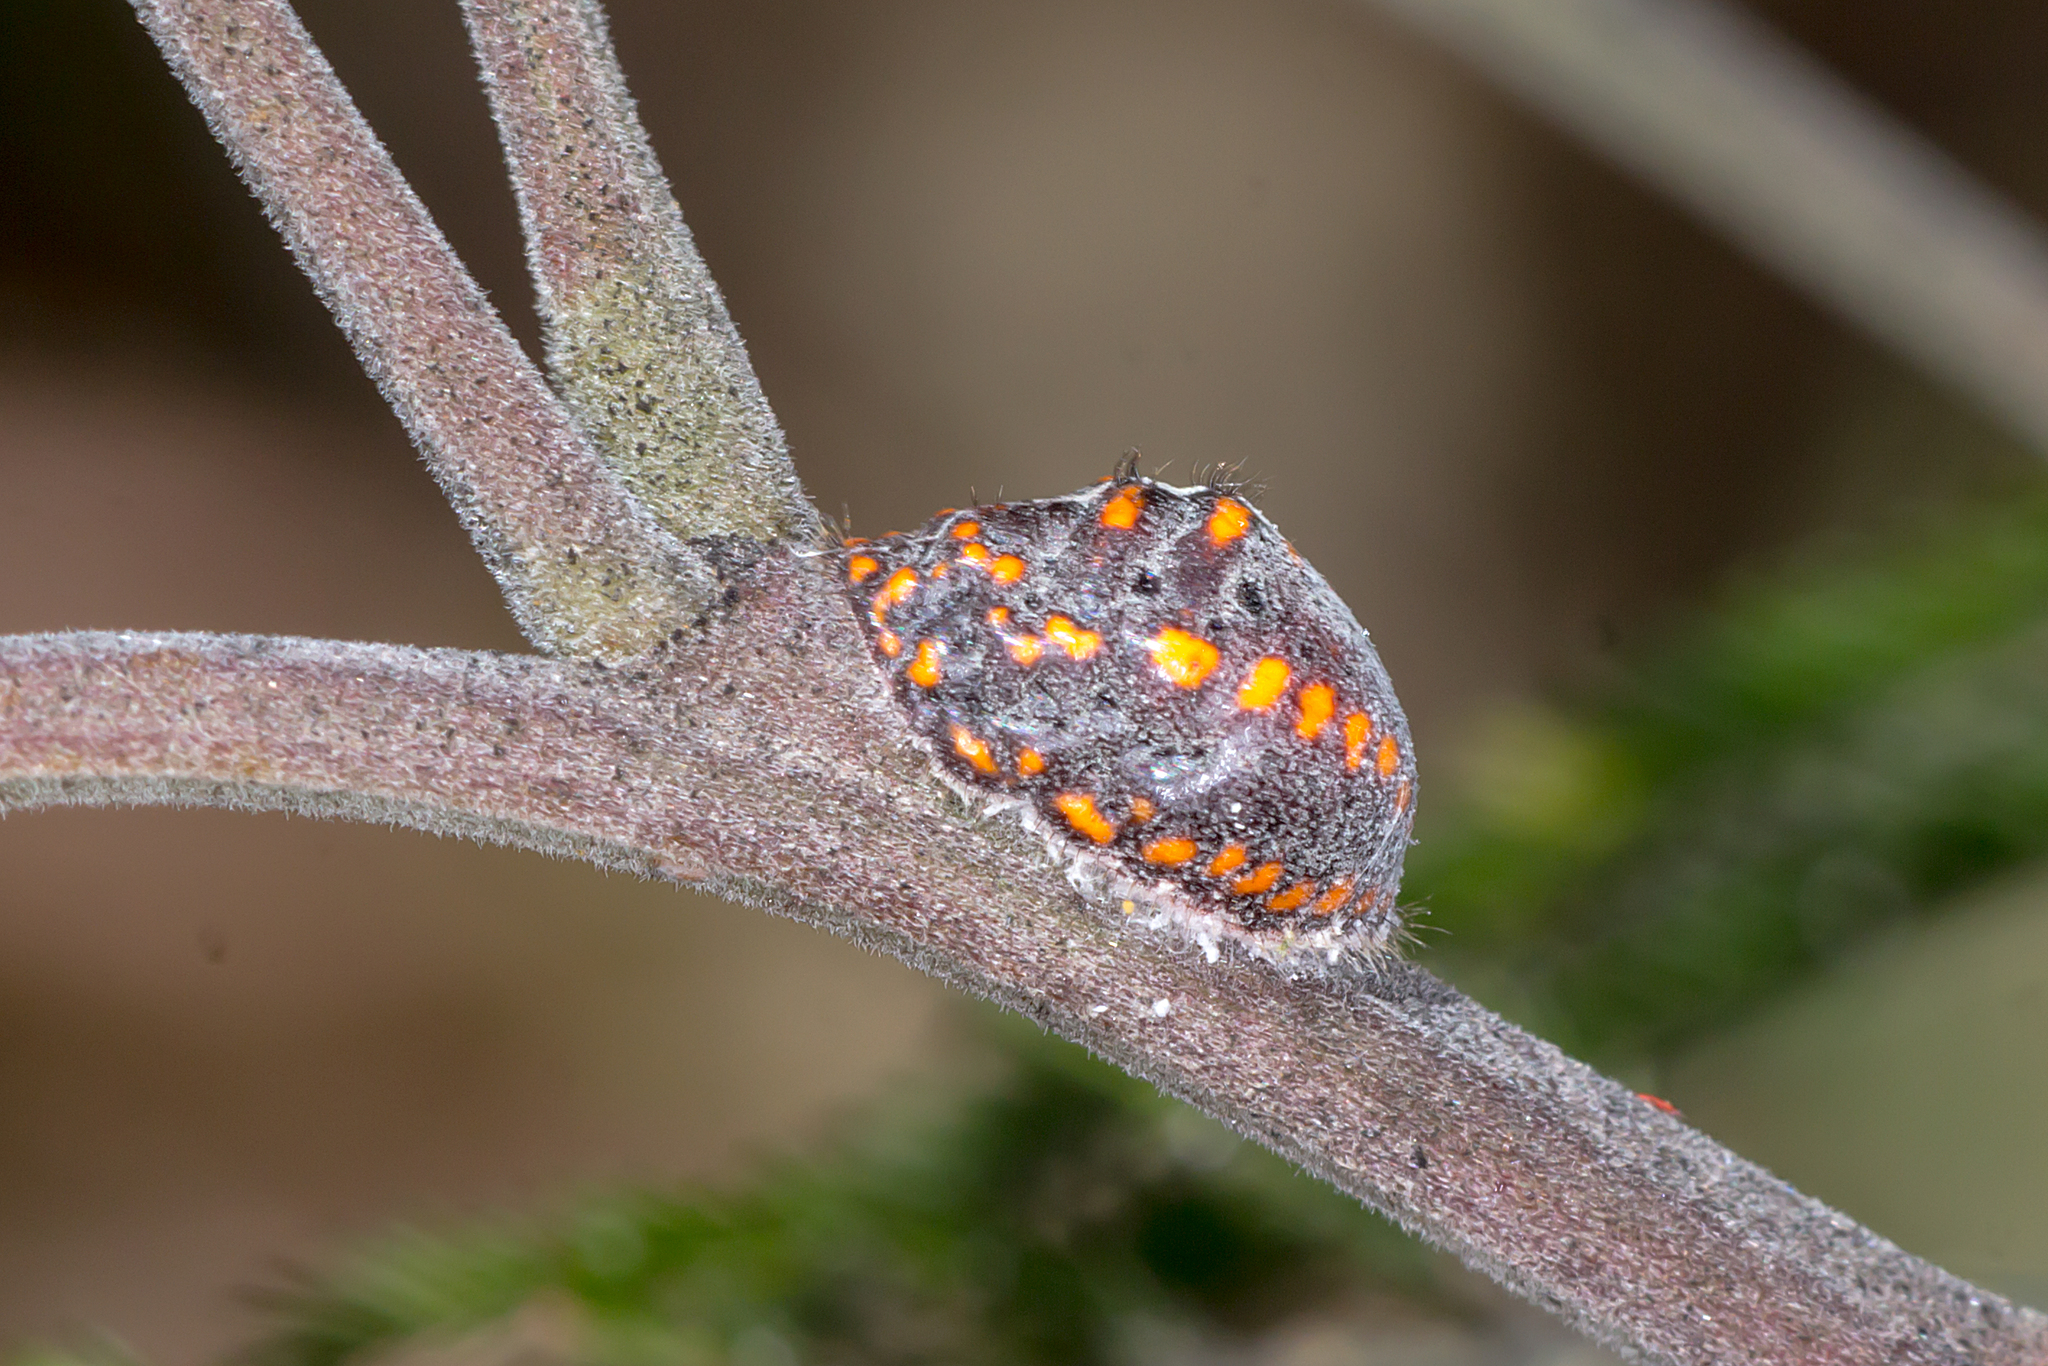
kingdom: Animalia
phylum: Arthropoda
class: Insecta
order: Hemiptera
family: Margarodidae
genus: Icerya
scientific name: Icerya
